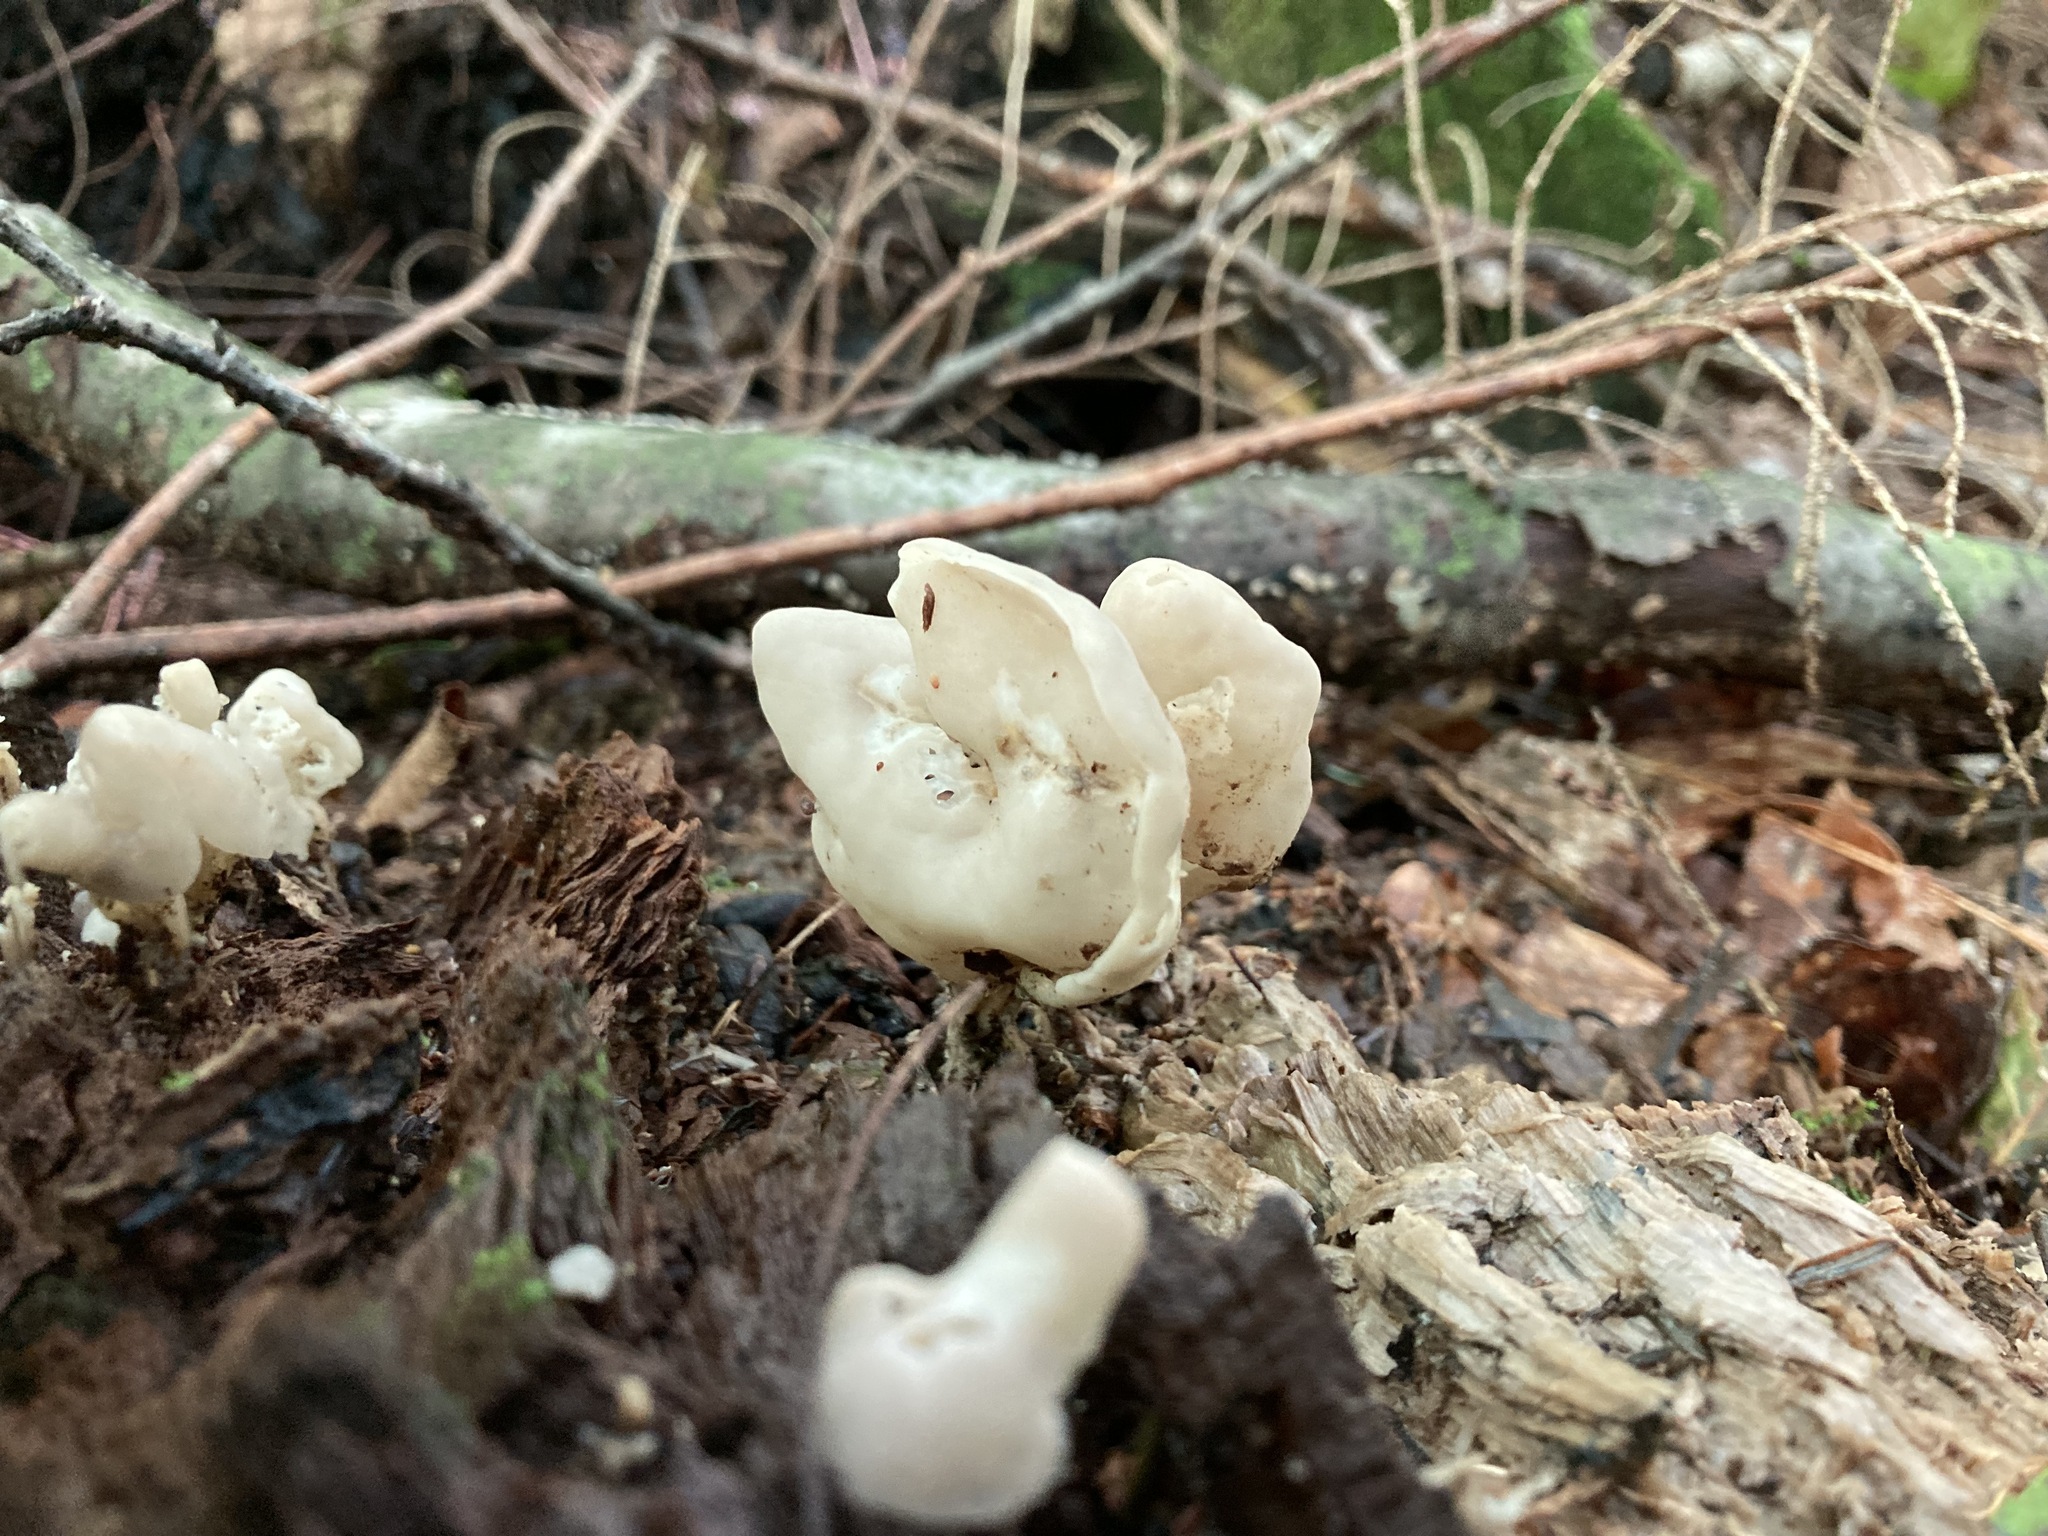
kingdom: Fungi
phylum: Ascomycota
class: Pezizomycetes
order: Pezizales
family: Helvellaceae
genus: Helvella
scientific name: Helvella crispa
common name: White saddle
